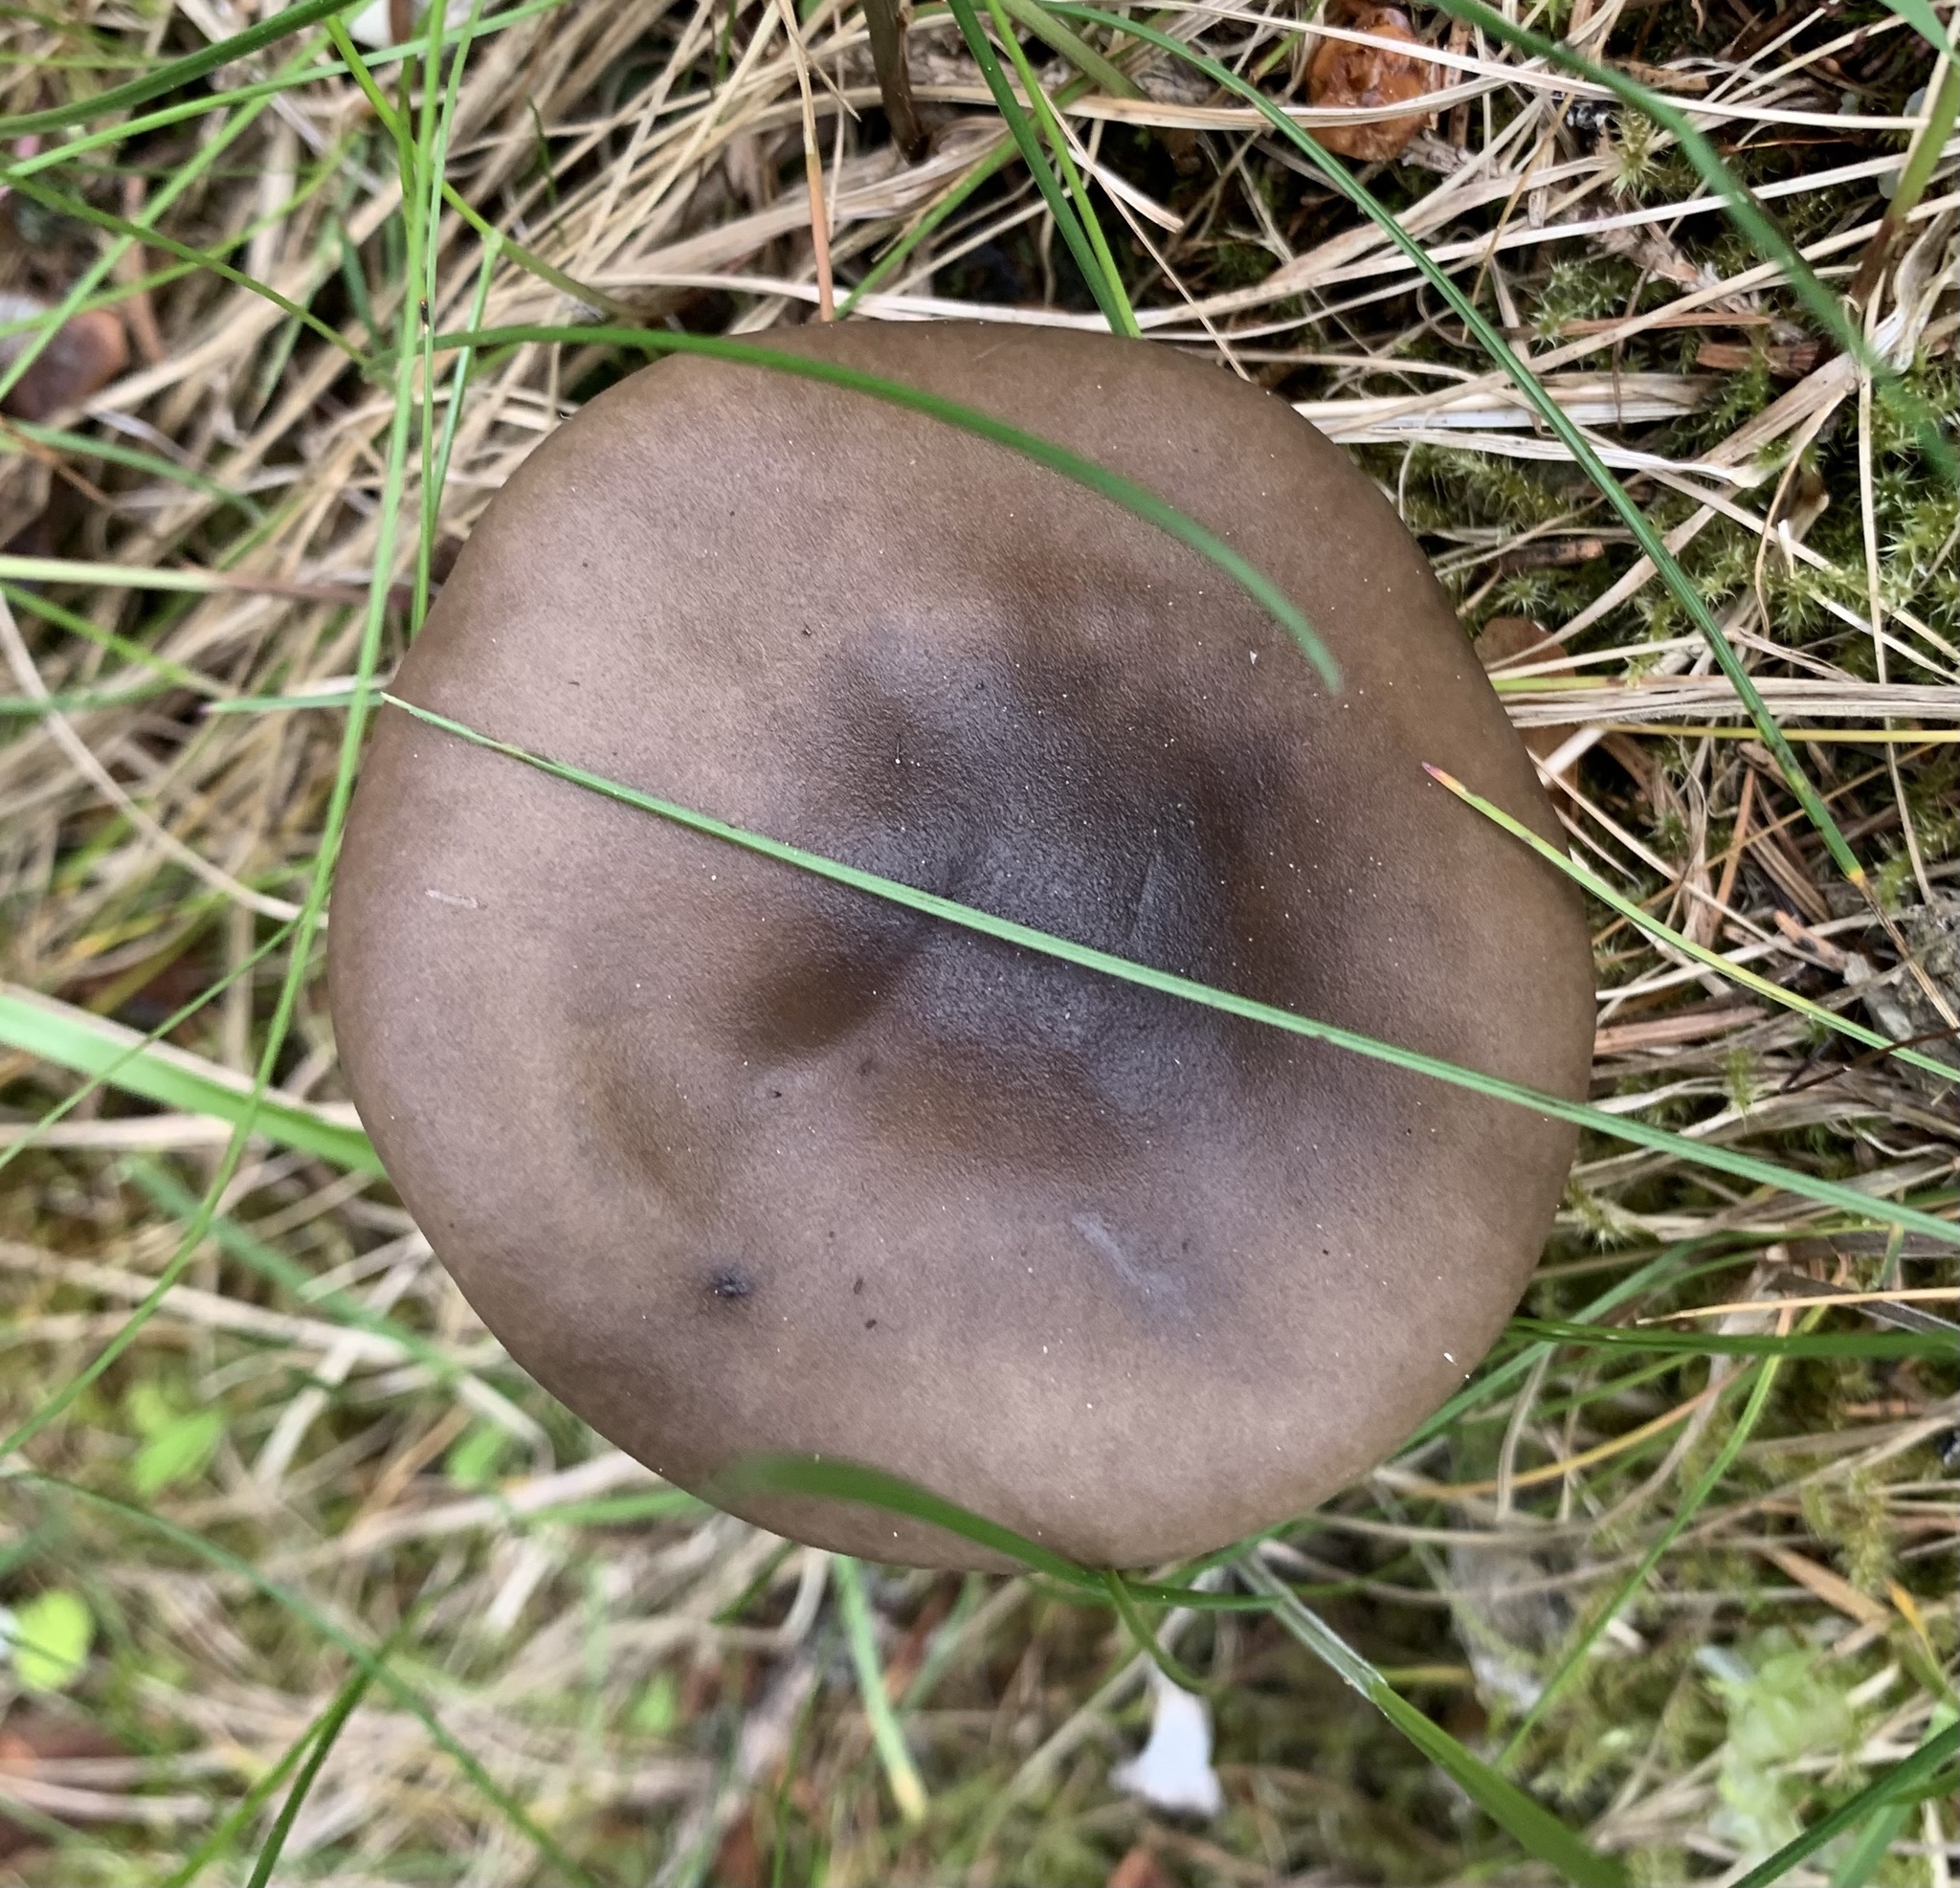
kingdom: Fungi
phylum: Basidiomycota
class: Agaricomycetes
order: Agaricales
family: Pseudoclitocybaceae
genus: Pseudoclitocybe
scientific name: Pseudoclitocybe cyathiformis
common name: Goblet
